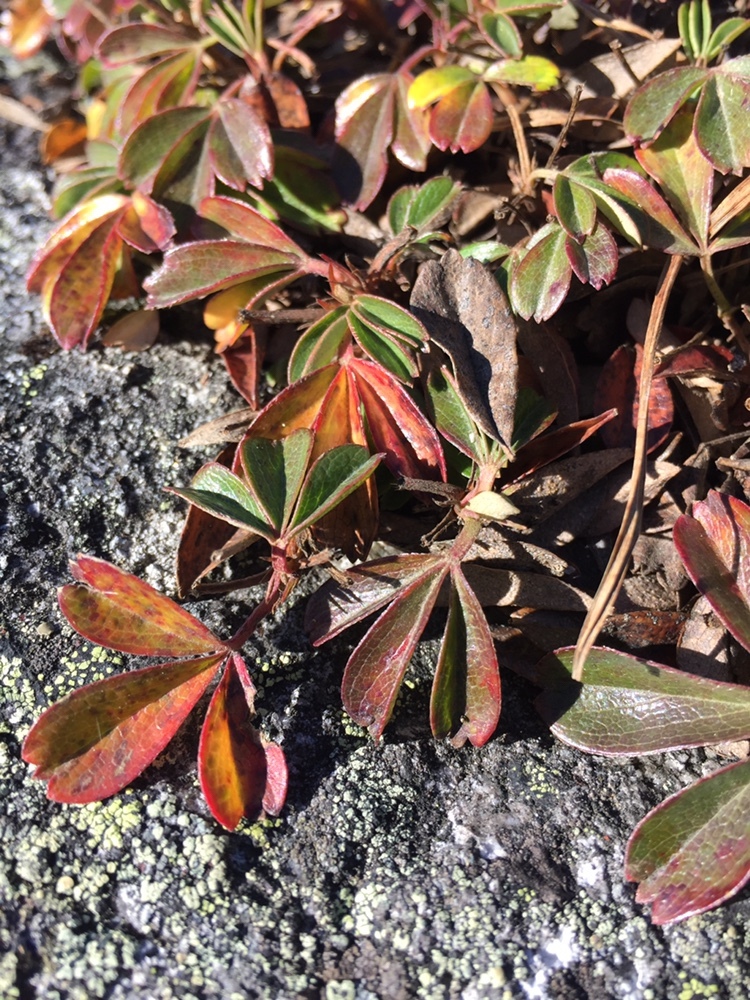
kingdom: Plantae
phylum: Tracheophyta
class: Magnoliopsida
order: Rosales
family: Rosaceae
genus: Sibbaldia
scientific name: Sibbaldia tridentata
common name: Three-toothed cinquefoil
